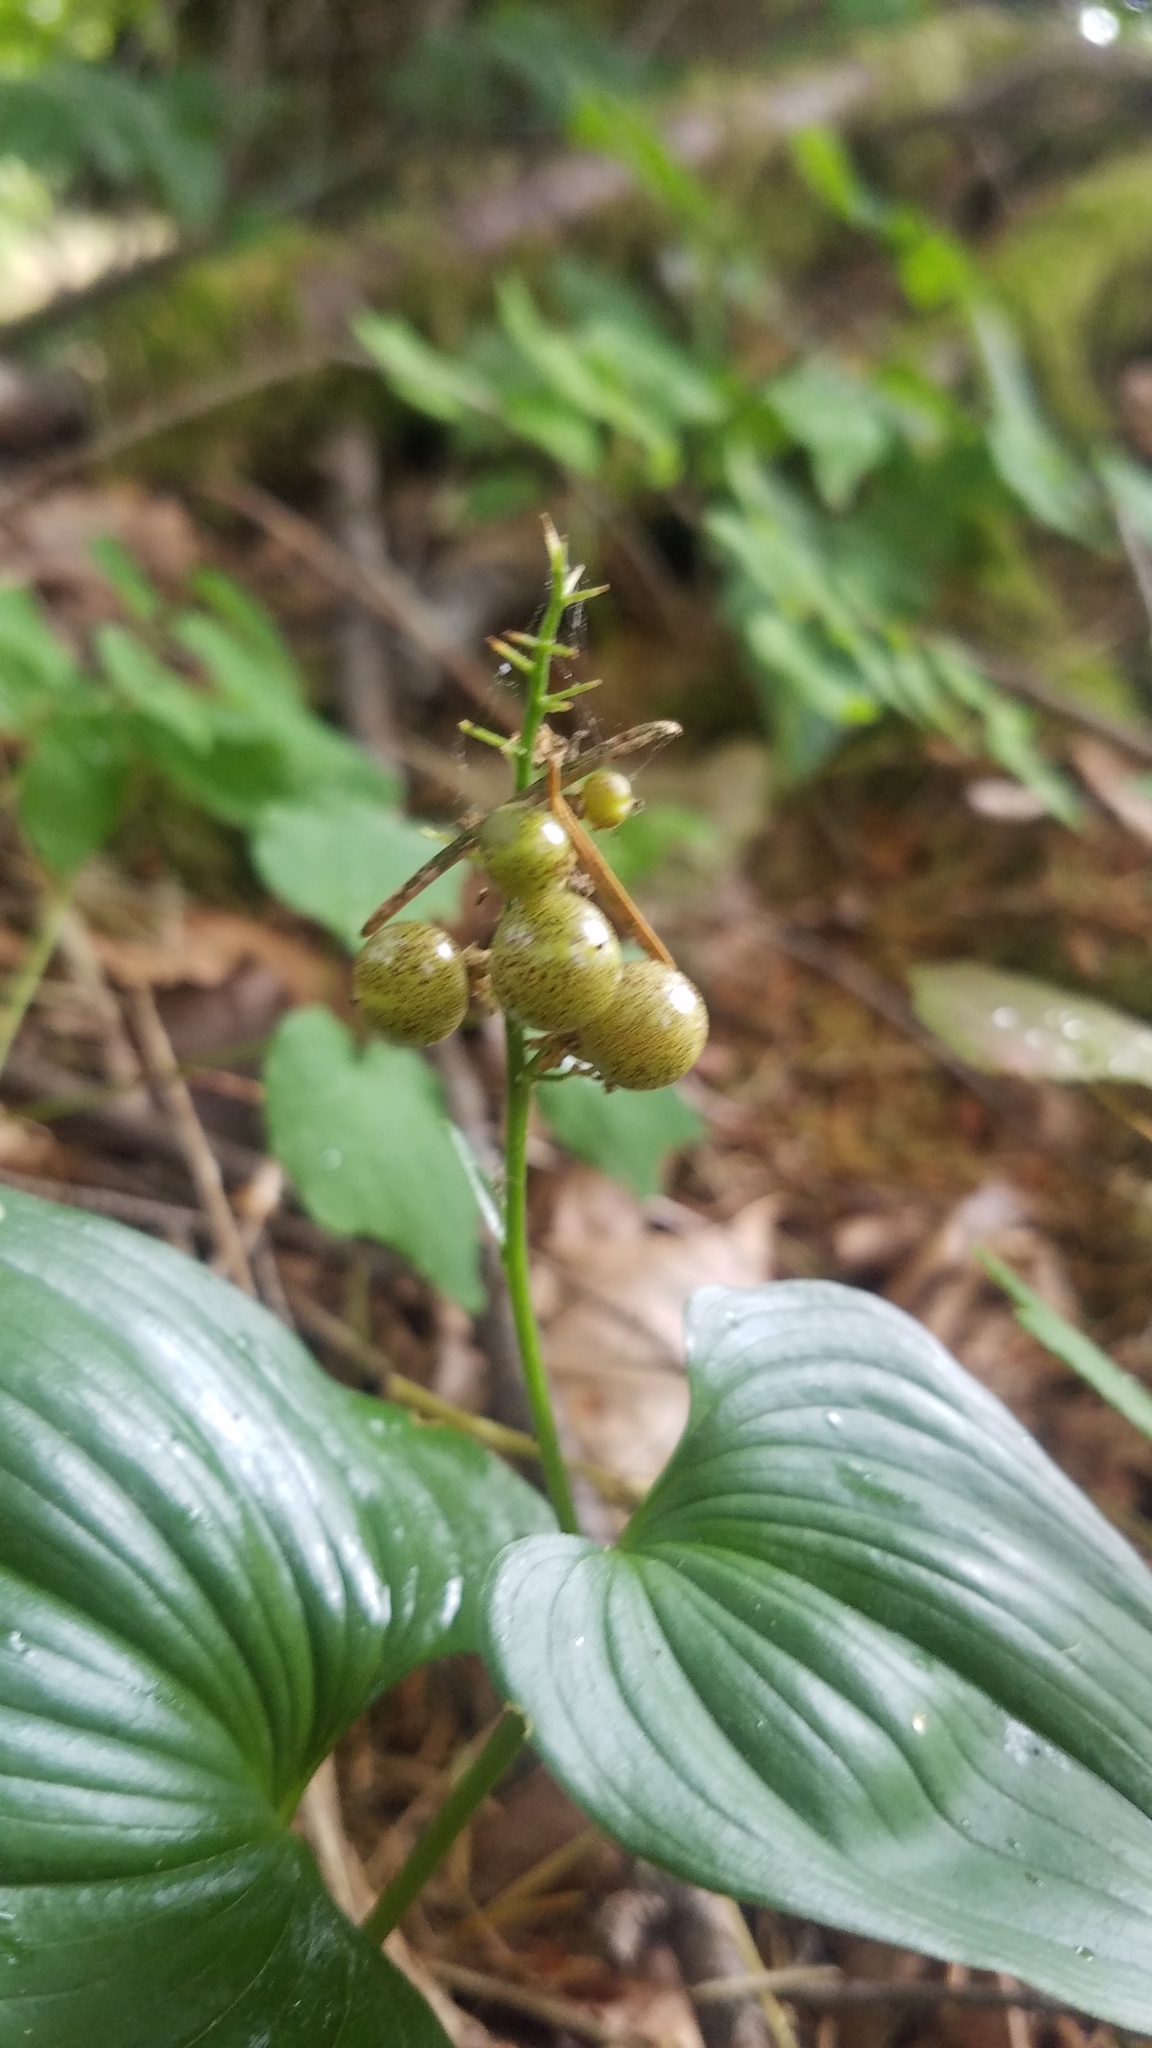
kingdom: Plantae
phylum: Tracheophyta
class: Liliopsida
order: Asparagales
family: Asparagaceae
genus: Maianthemum
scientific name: Maianthemum dilatatum
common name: False lily-of-the-valley
